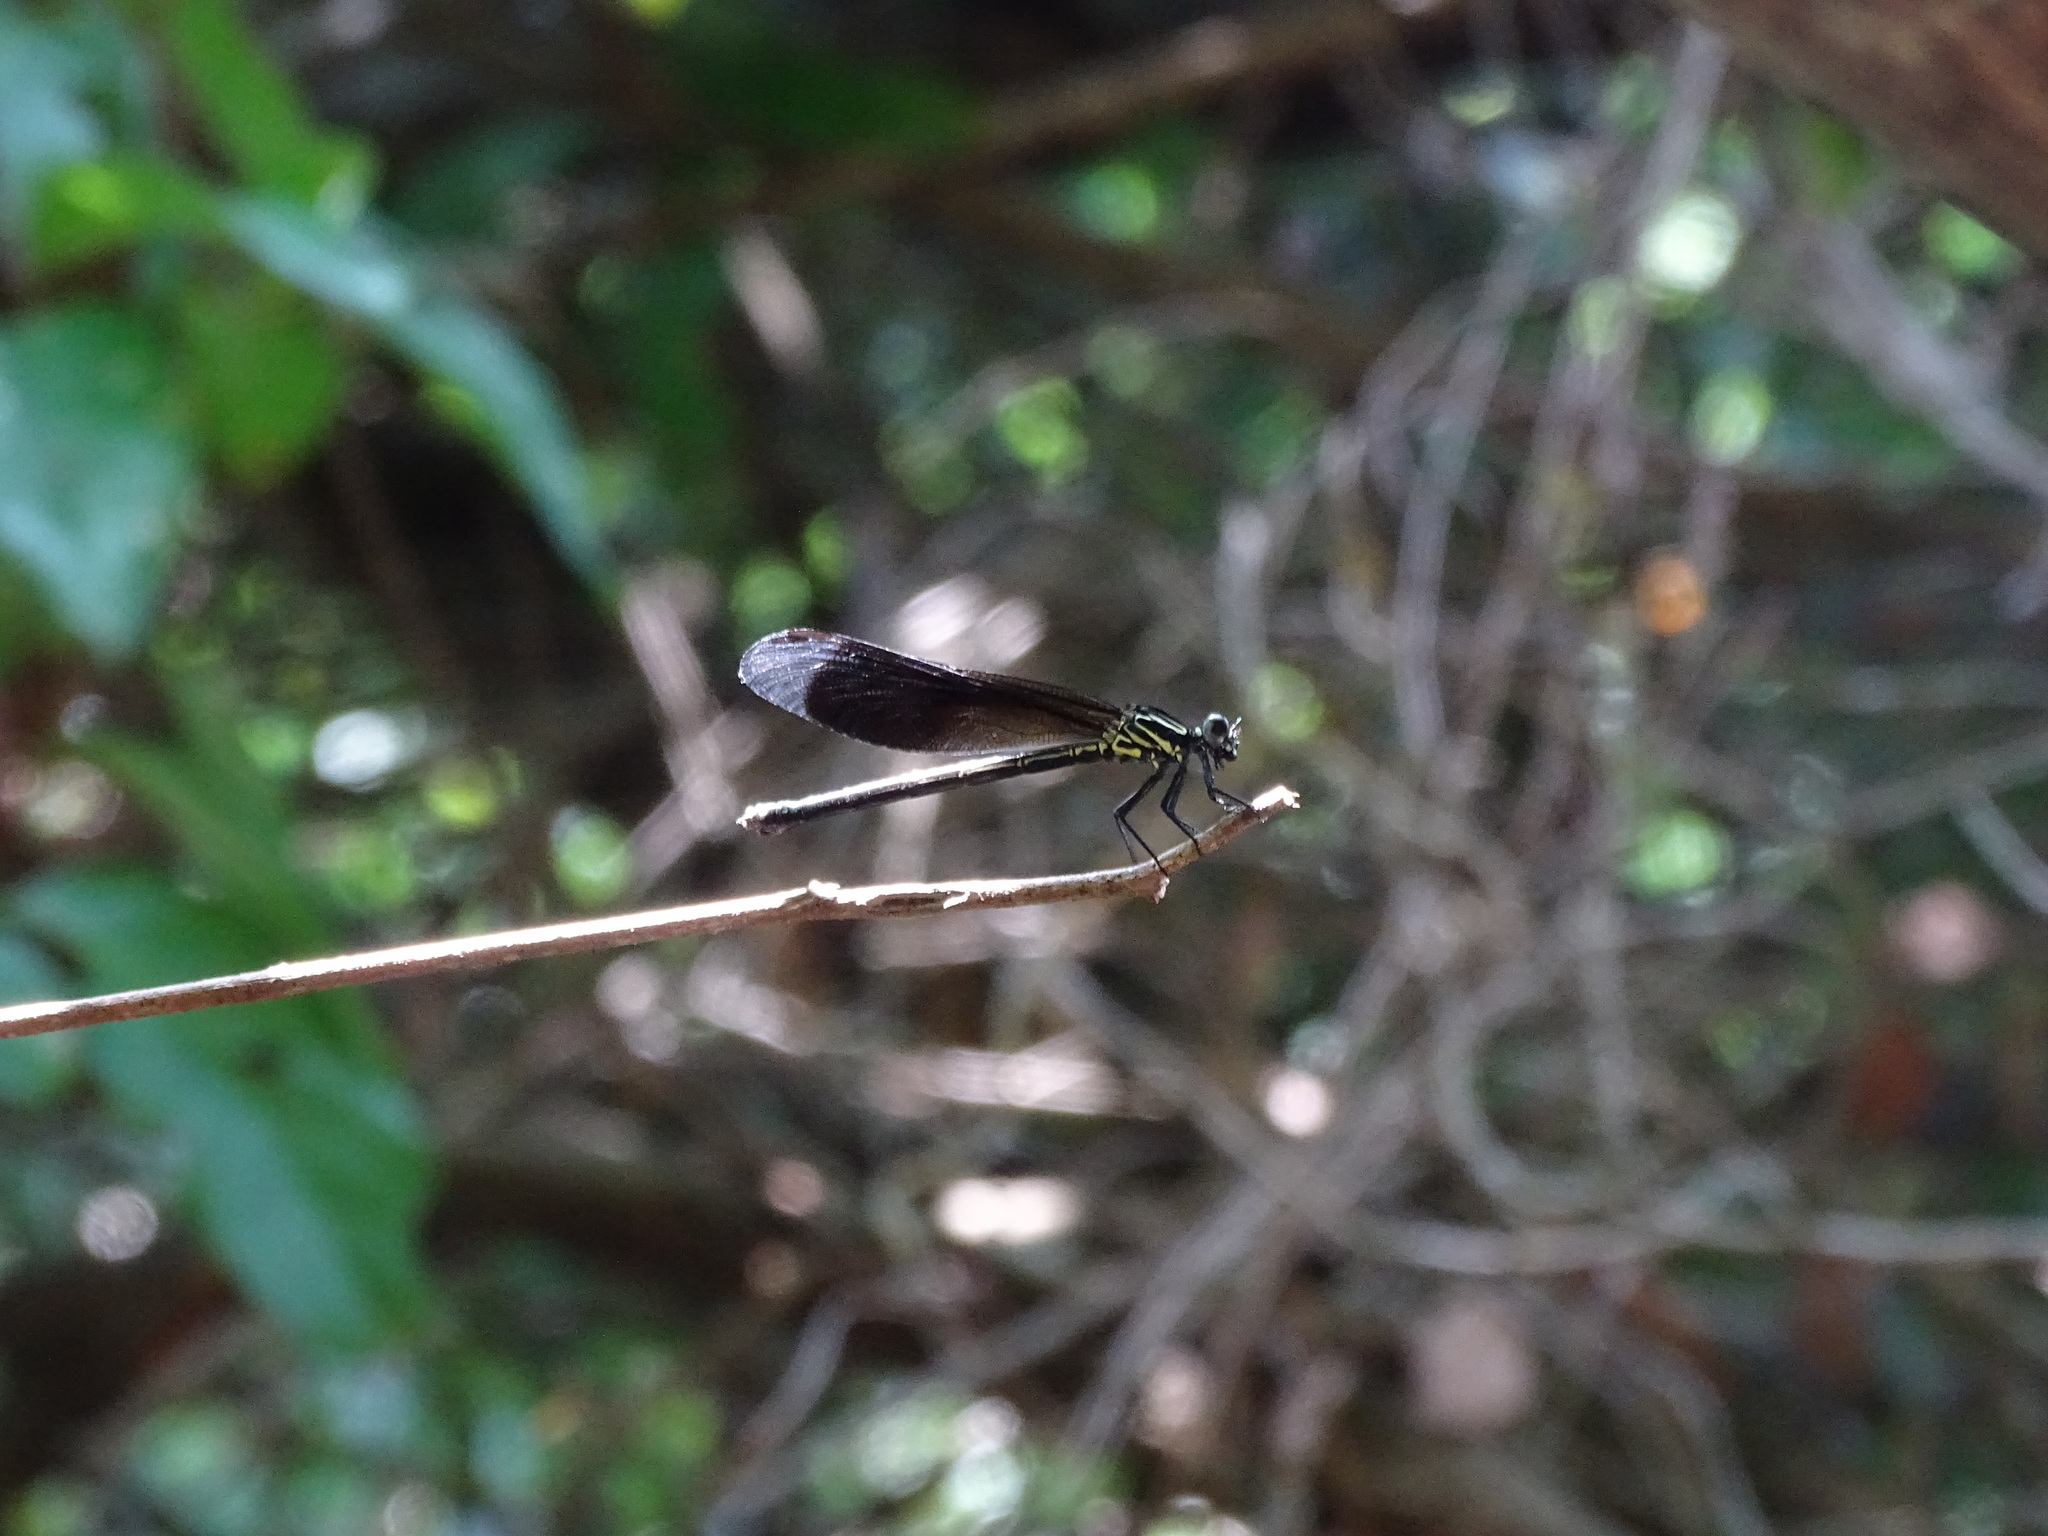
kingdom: Animalia
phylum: Arthropoda
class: Insecta
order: Odonata
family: Euphaeidae
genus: Euphaea
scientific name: Euphaea formosa
